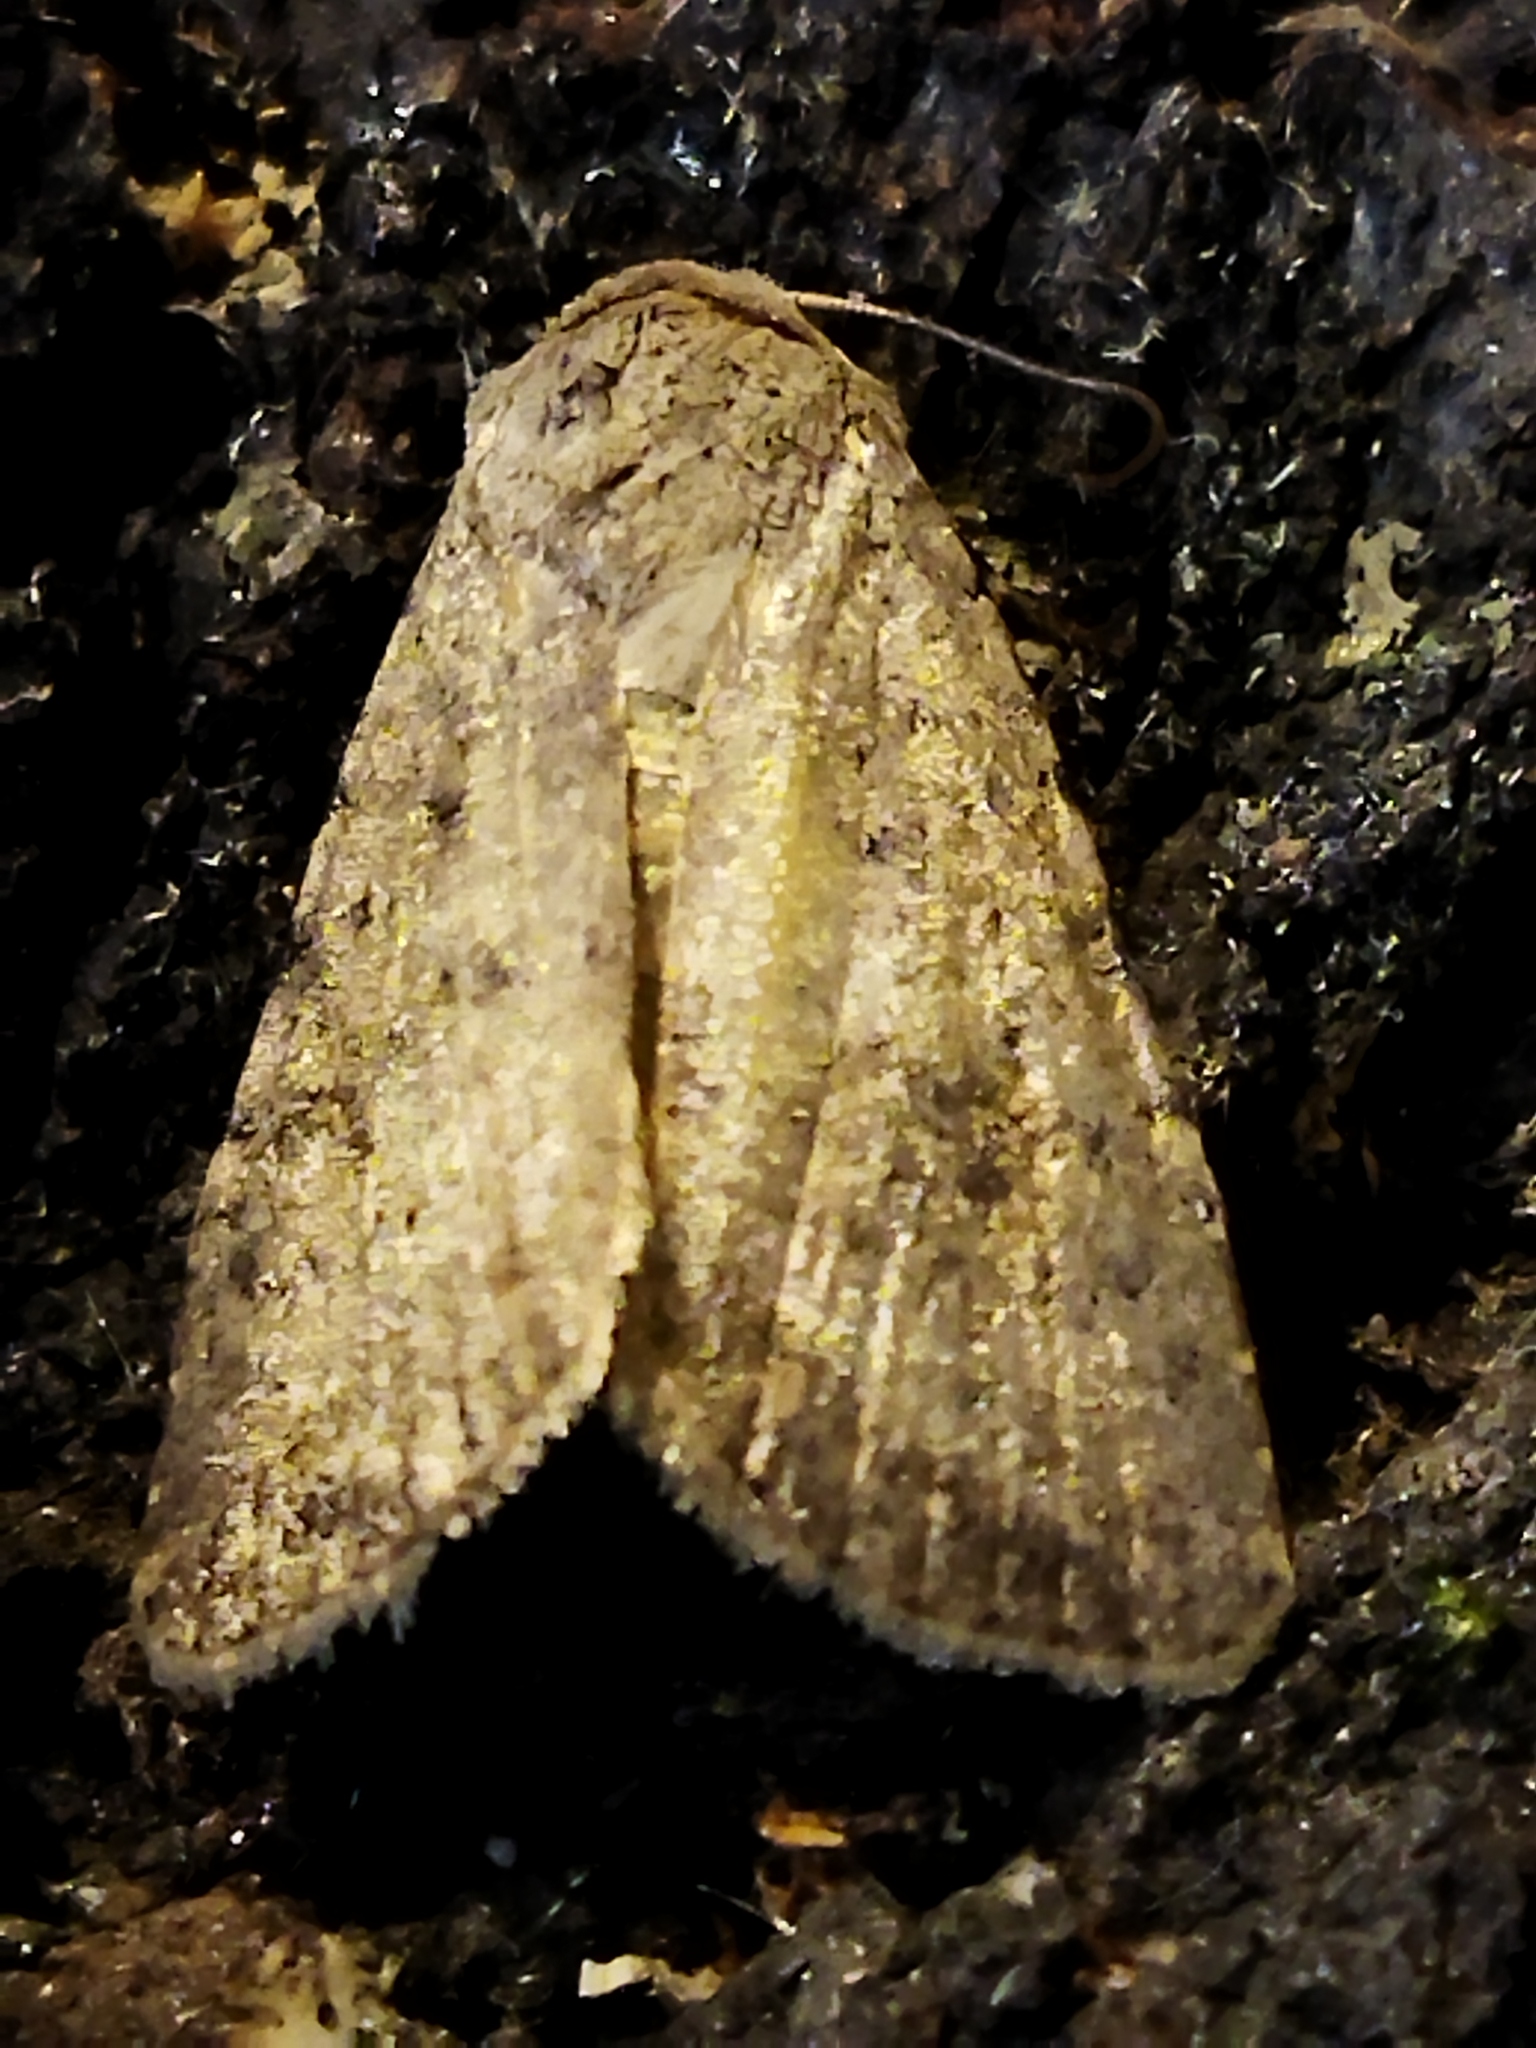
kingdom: Animalia
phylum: Arthropoda
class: Insecta
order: Lepidoptera
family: Noctuidae
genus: Caradrina
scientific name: Caradrina clavipalpis
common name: Pale mottled willow
